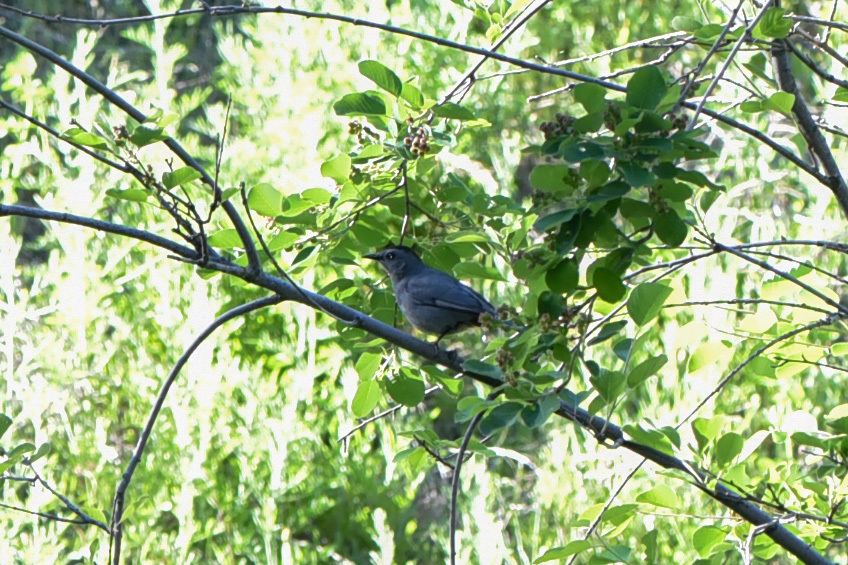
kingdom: Animalia
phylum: Chordata
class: Aves
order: Passeriformes
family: Mimidae
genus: Dumetella
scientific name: Dumetella carolinensis
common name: Gray catbird
